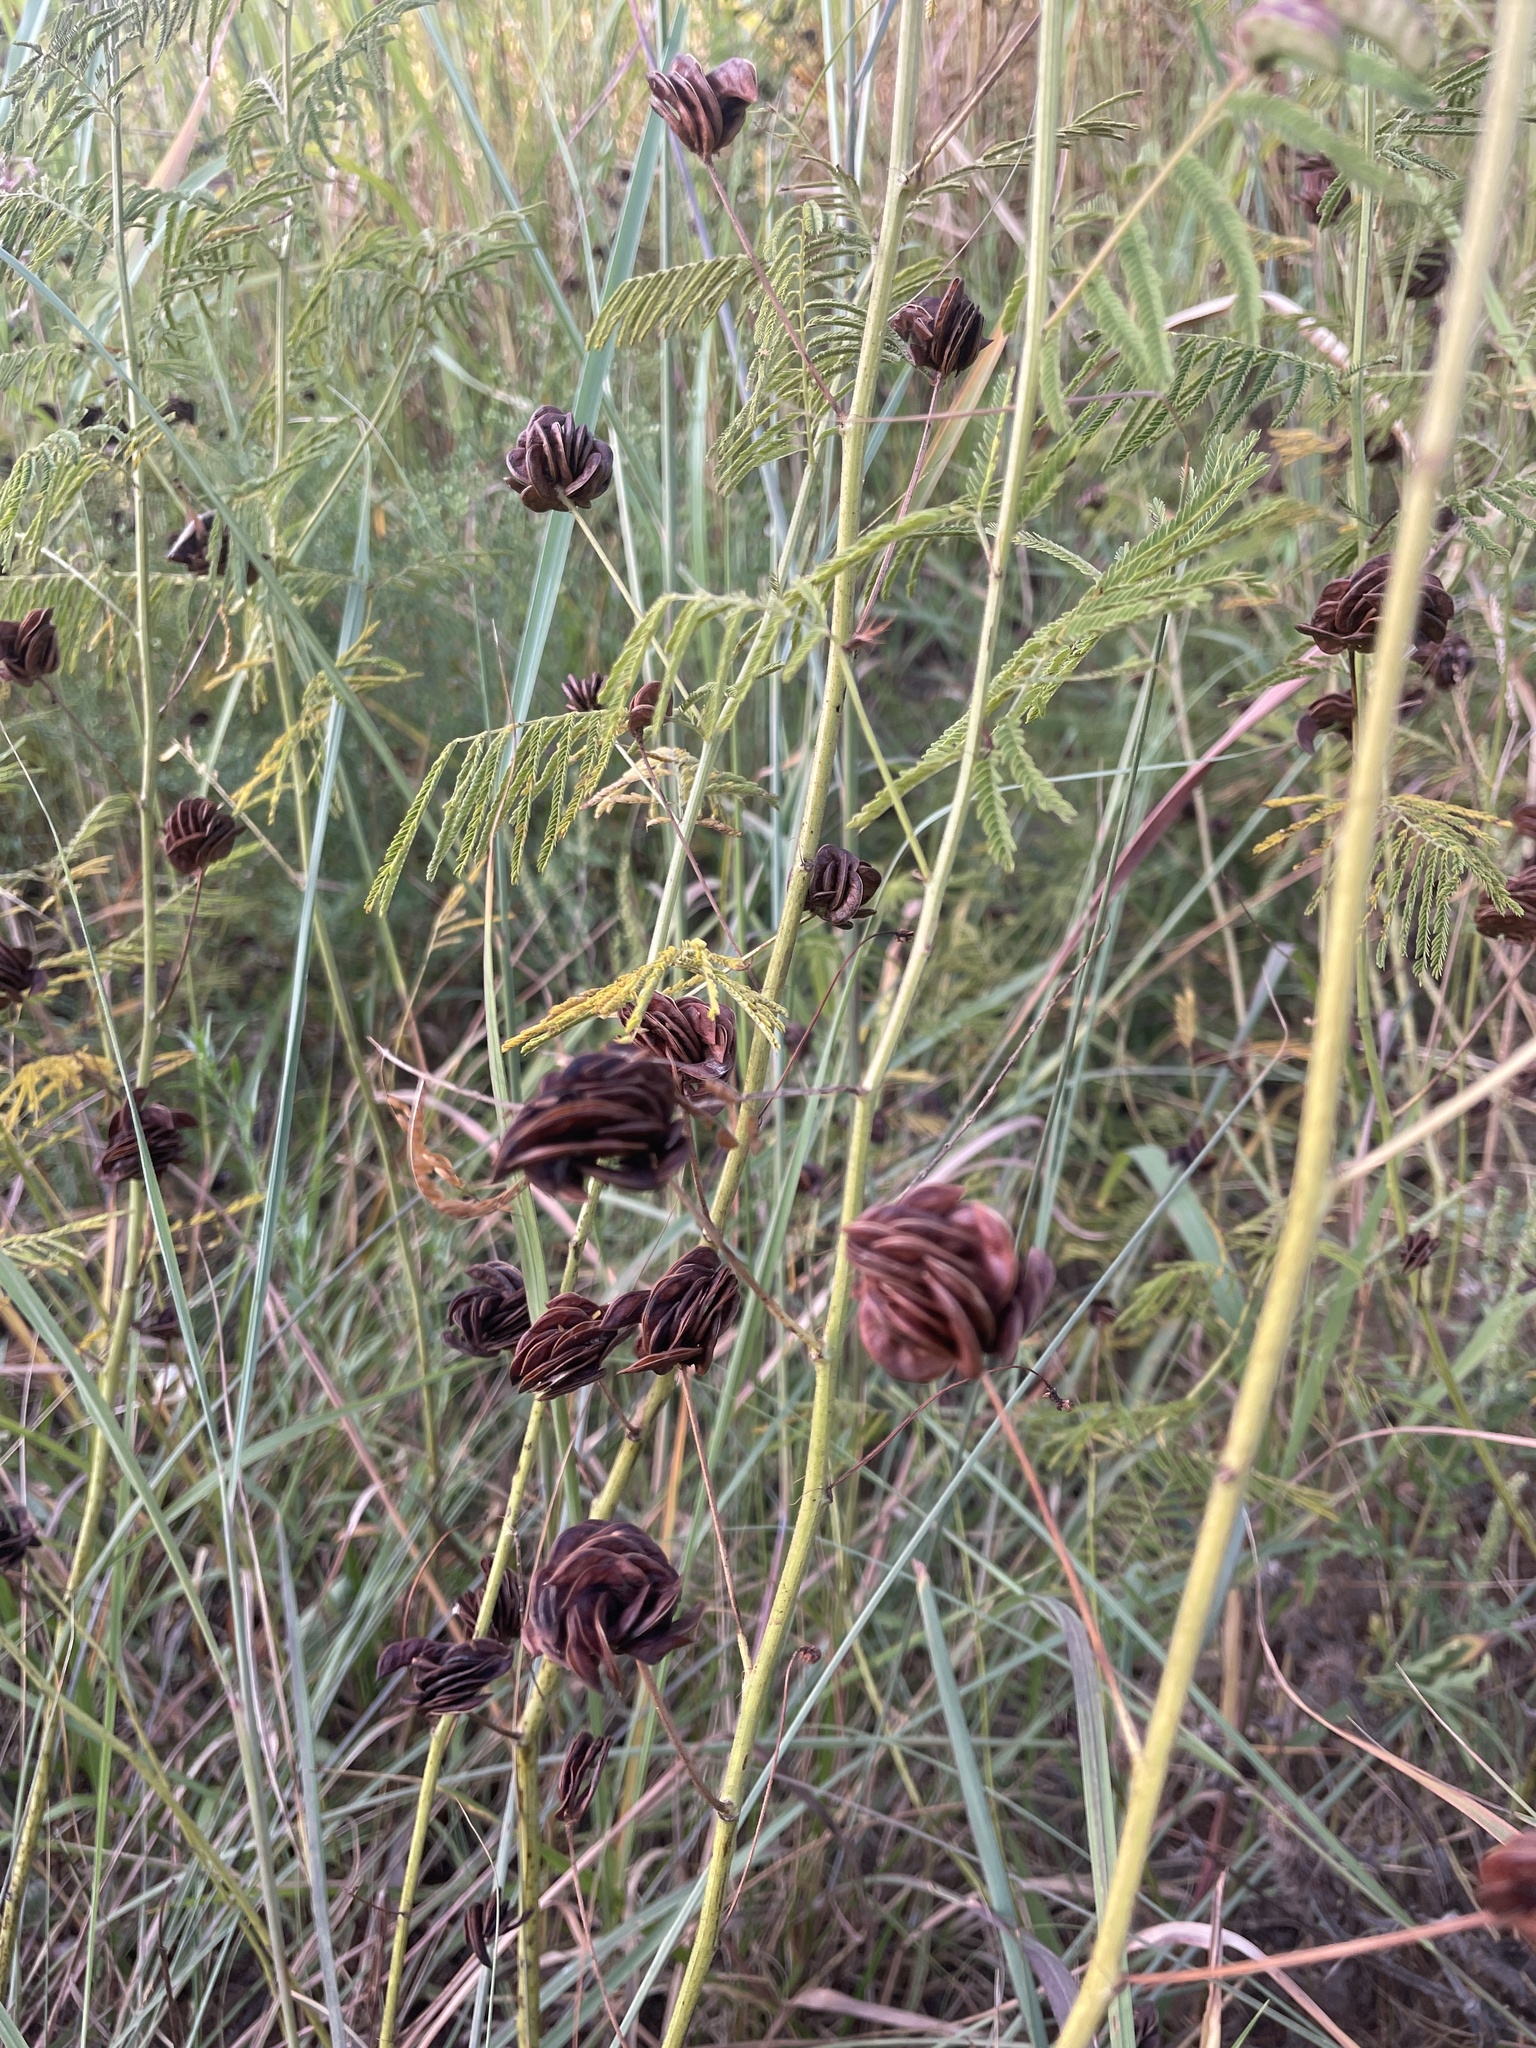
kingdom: Plantae
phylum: Tracheophyta
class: Magnoliopsida
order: Fabales
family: Fabaceae
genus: Desmanthus
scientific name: Desmanthus illinoensis
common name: Illinois bundle-flower
